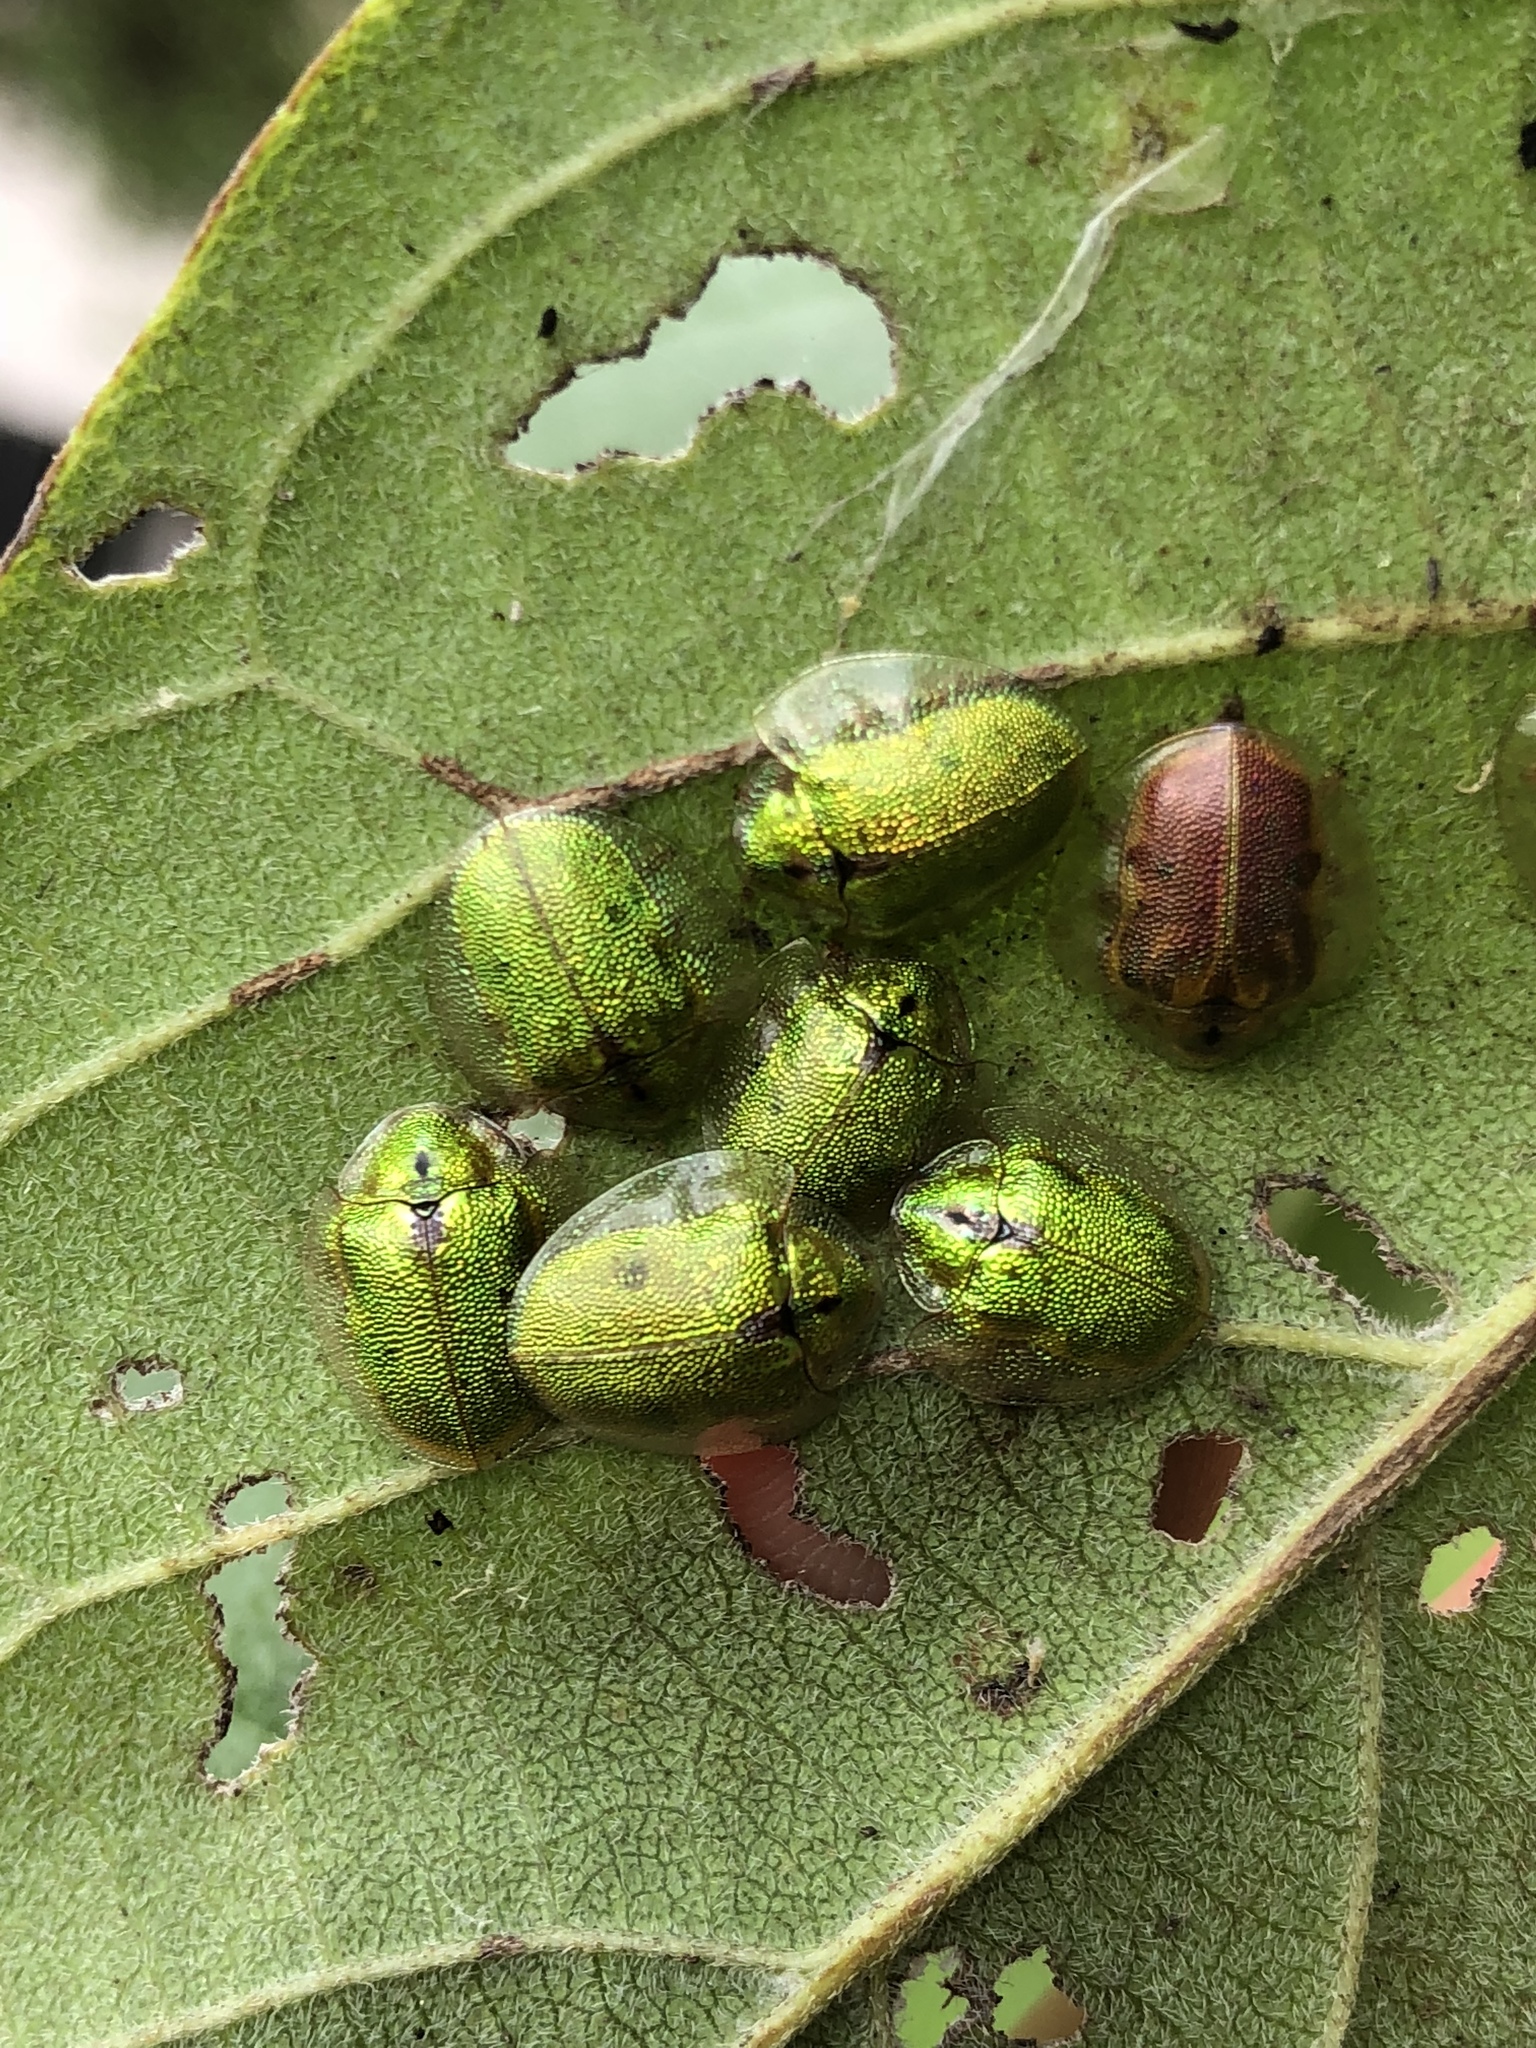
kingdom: Animalia
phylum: Arthropoda
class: Insecta
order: Coleoptera
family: Chrysomelidae
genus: Eurypepla
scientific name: Eurypepla calochroma
